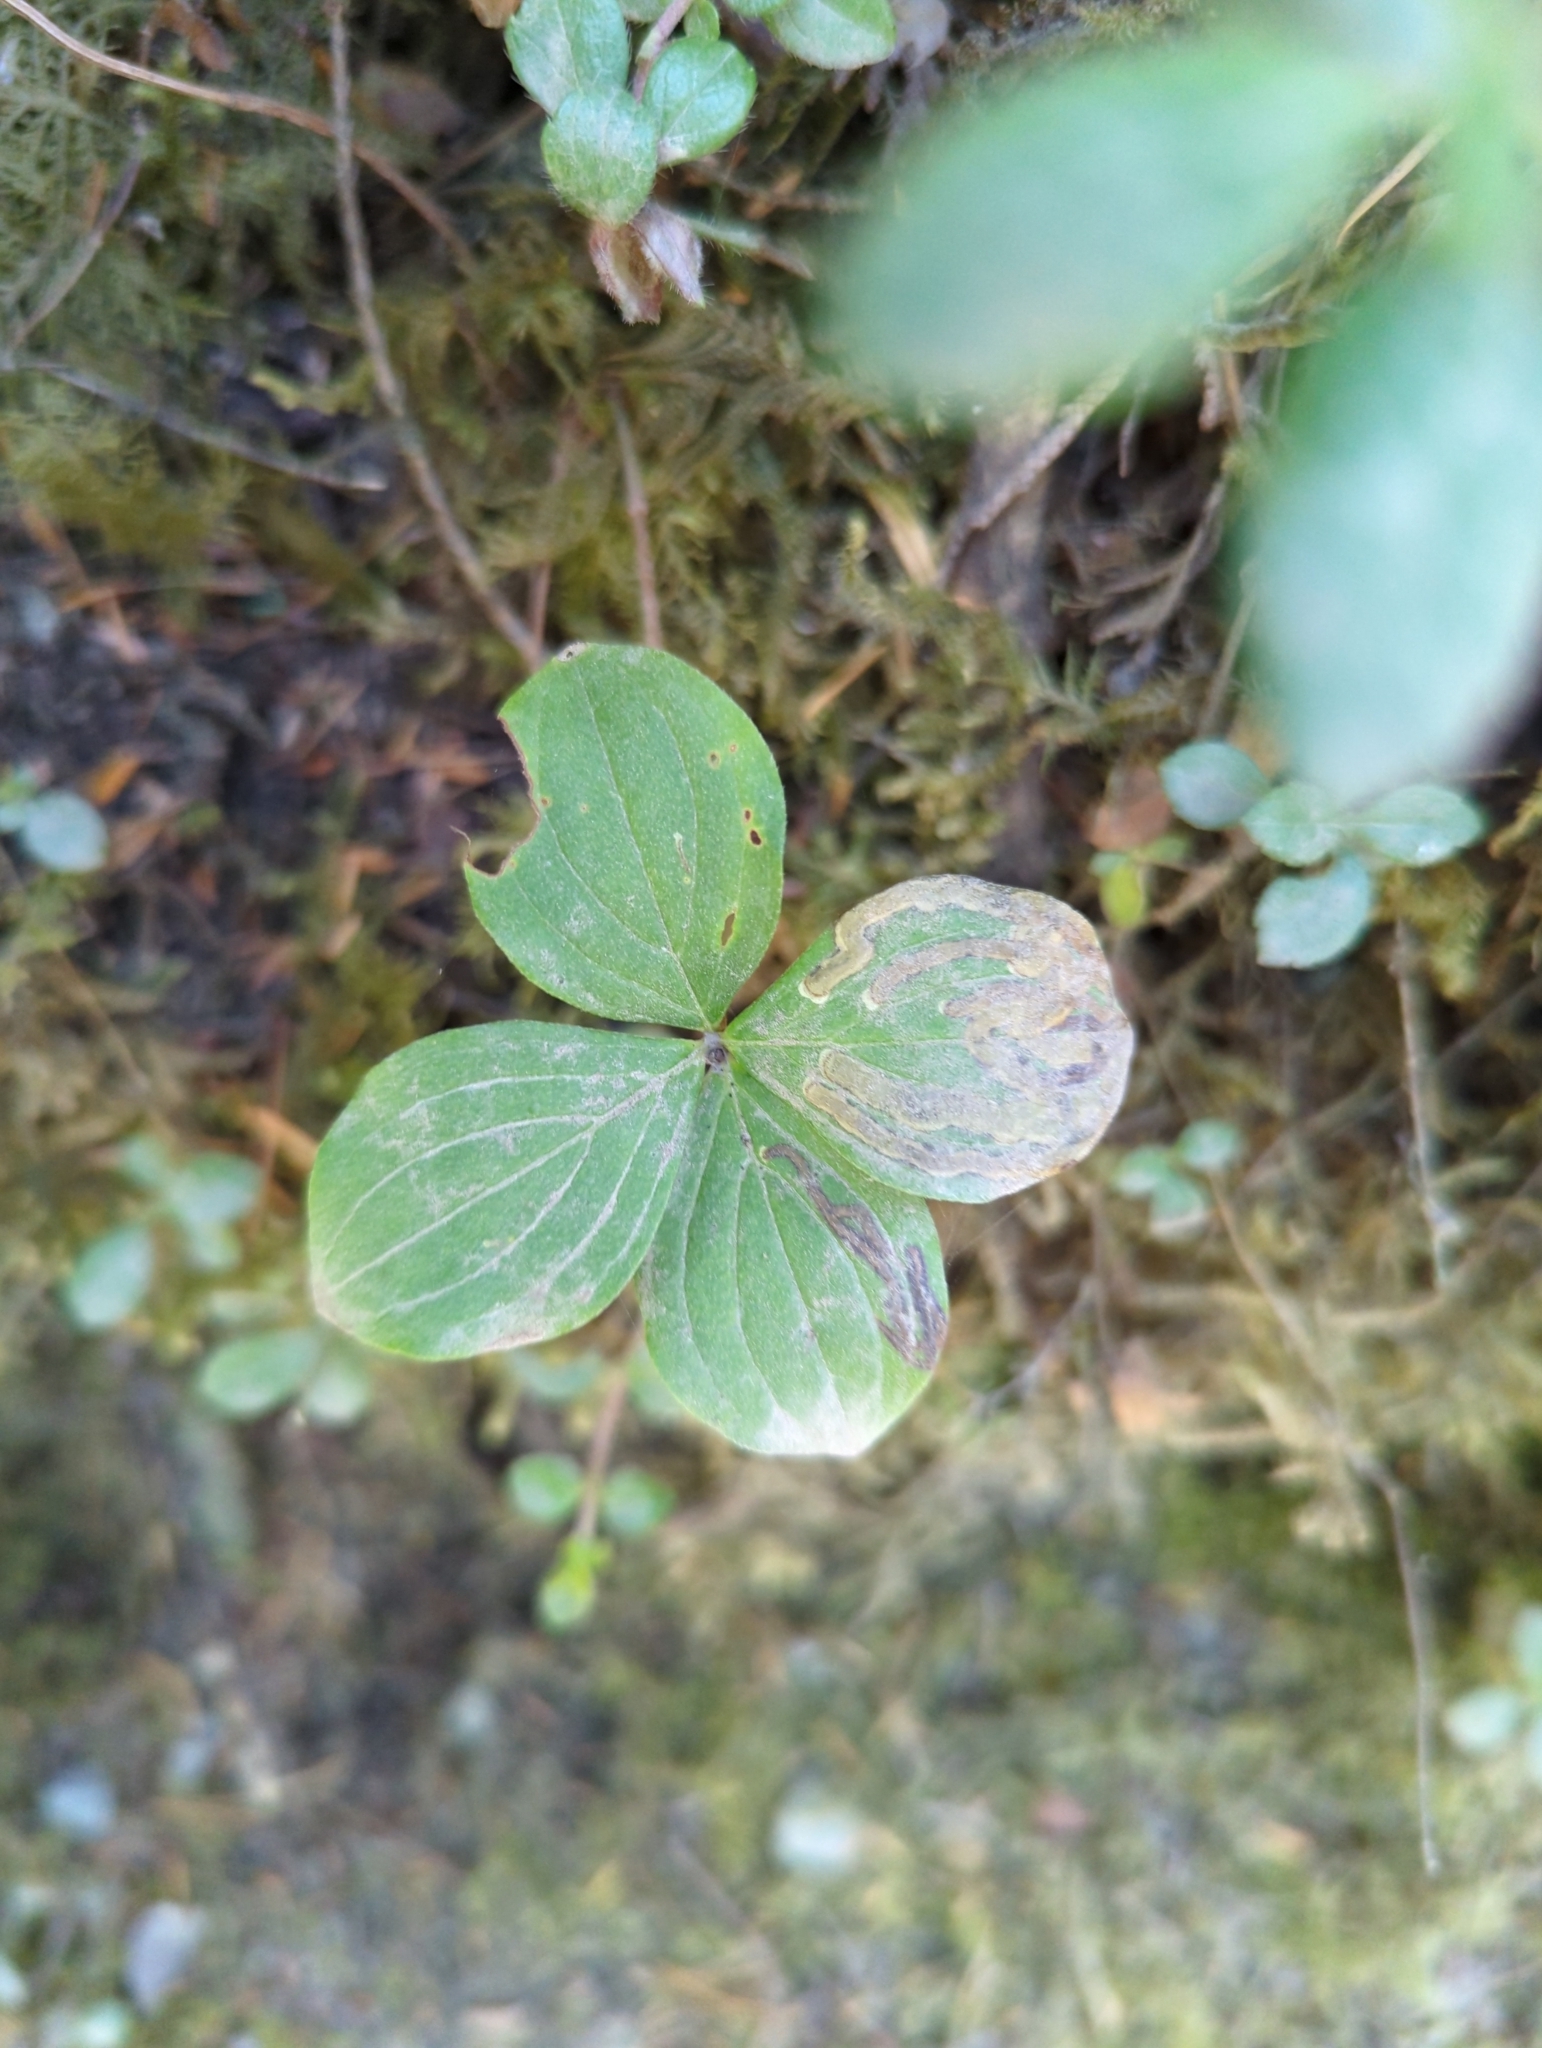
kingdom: Plantae
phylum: Tracheophyta
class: Magnoliopsida
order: Cornales
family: Cornaceae
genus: Cornus
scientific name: Cornus unalaschkensis
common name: Alaska bunchberry
